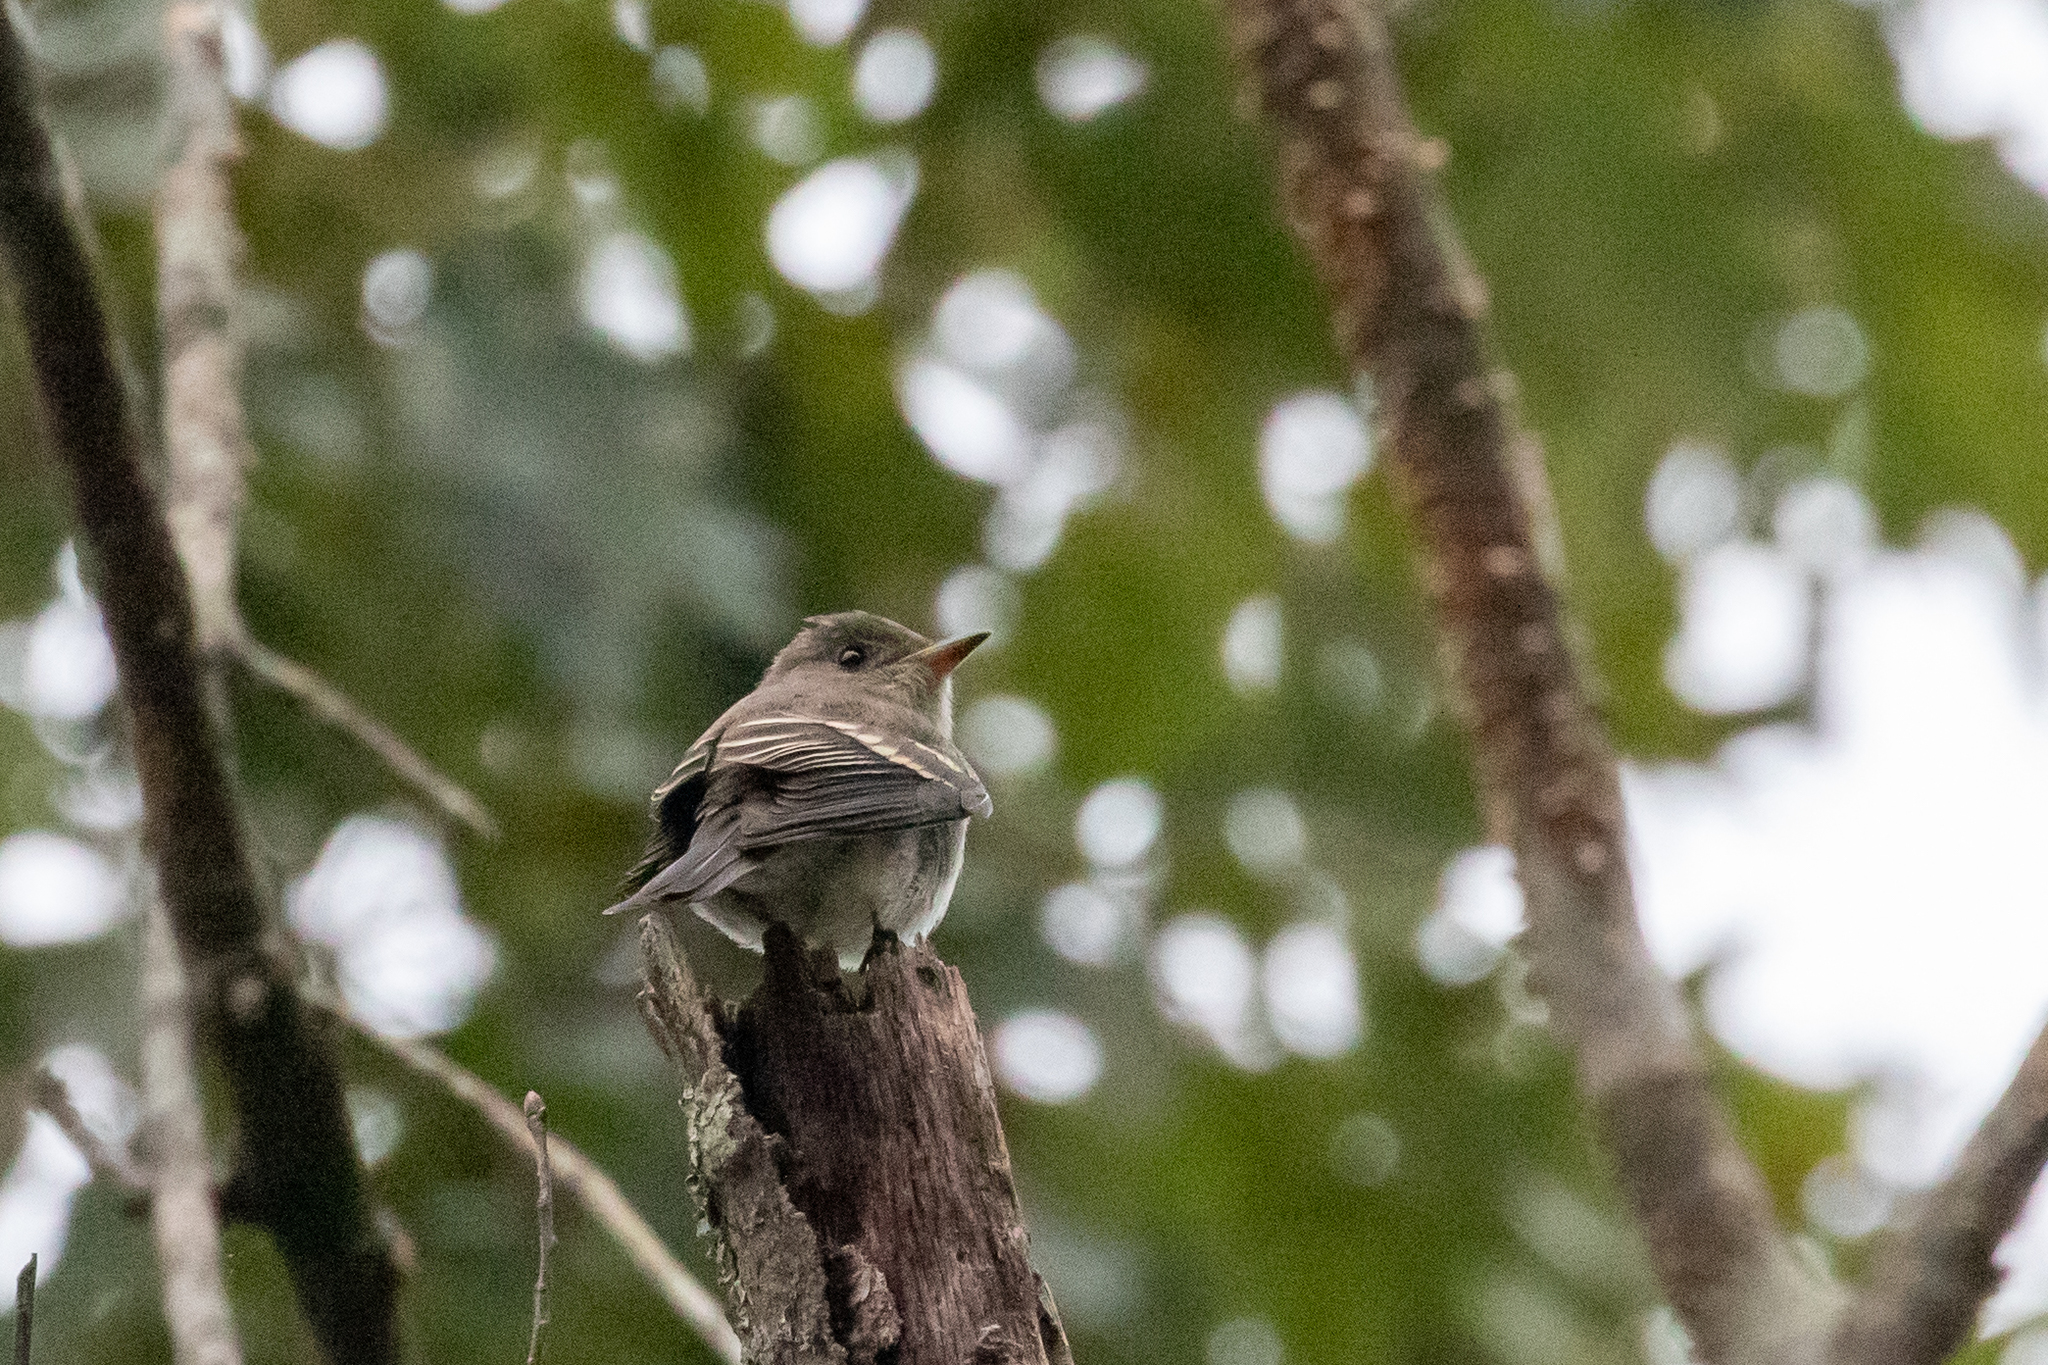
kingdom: Animalia
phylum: Chordata
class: Aves
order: Passeriformes
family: Tyrannidae
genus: Contopus
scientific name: Contopus virens
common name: Eastern wood-pewee
